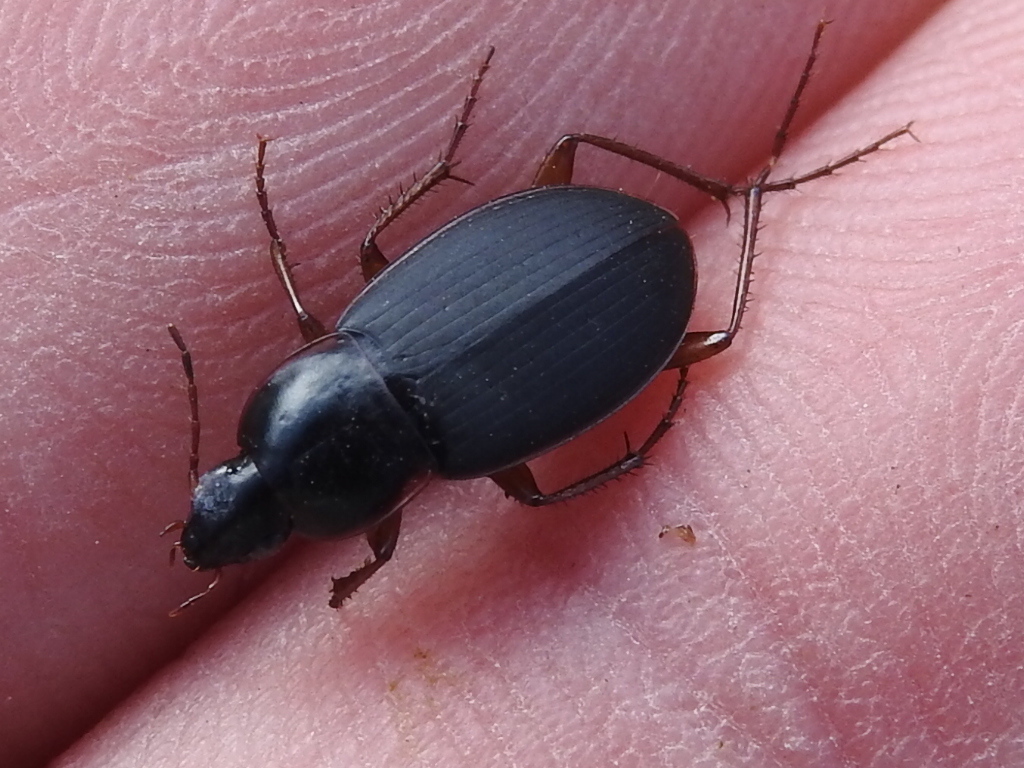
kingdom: Animalia
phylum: Arthropoda
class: Insecta
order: Coleoptera
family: Carabidae
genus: Calathus
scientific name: Calathus opaculus
